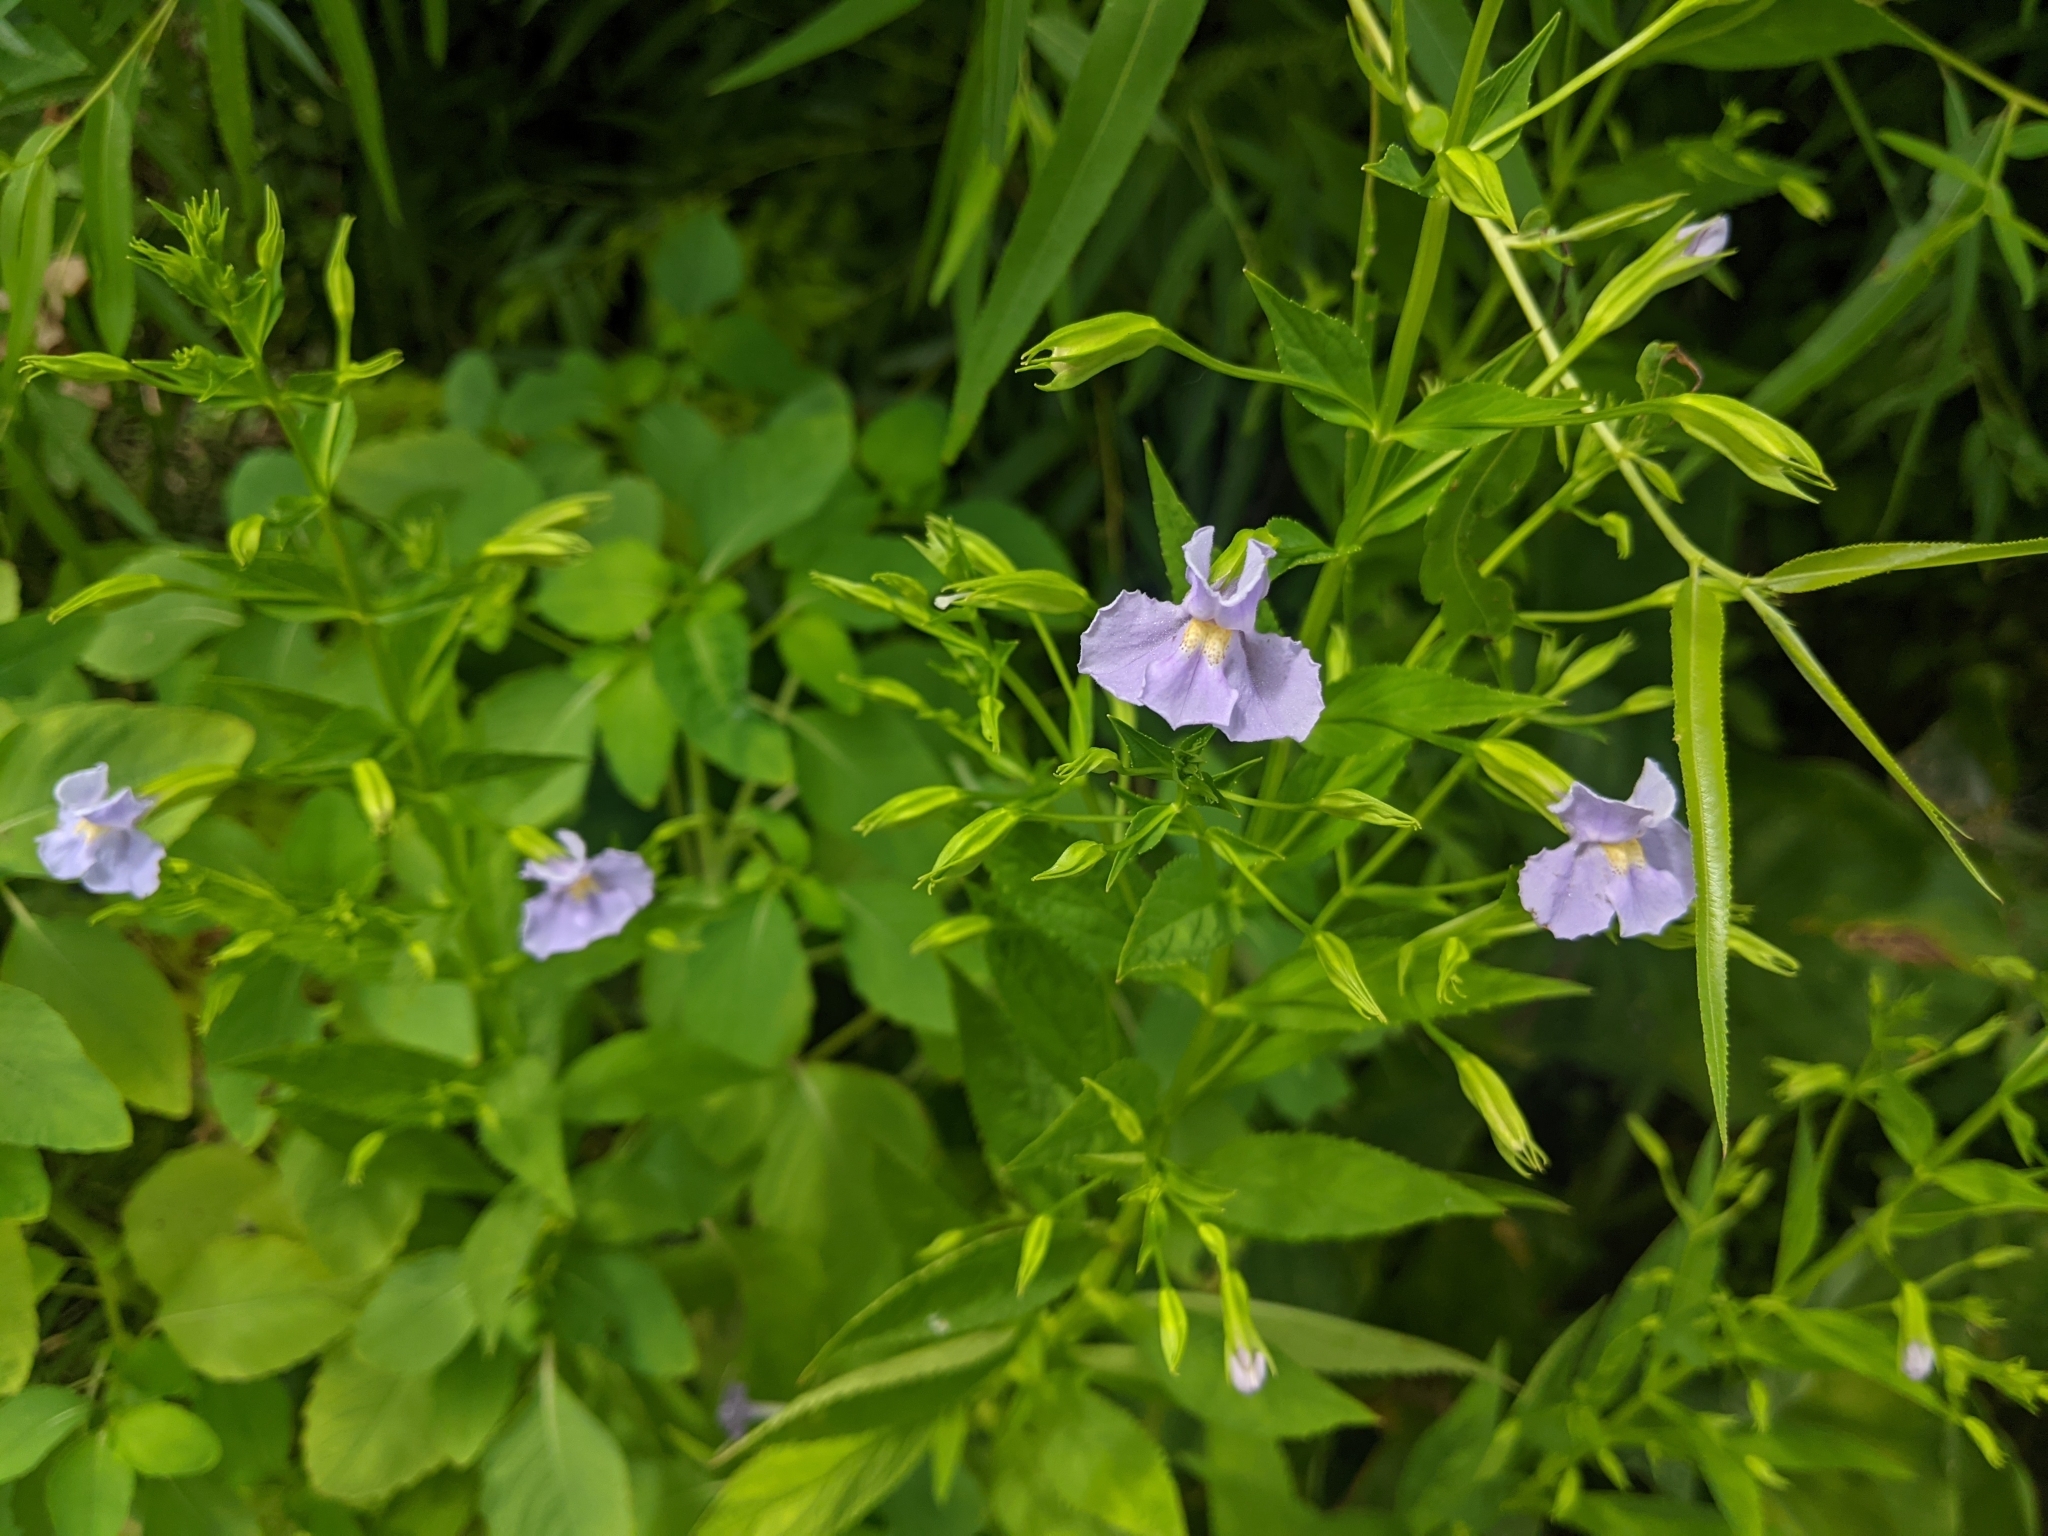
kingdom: Plantae
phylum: Tracheophyta
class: Magnoliopsida
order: Lamiales
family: Phrymaceae
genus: Mimulus
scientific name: Mimulus ringens
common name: Allegheny monkeyflower
